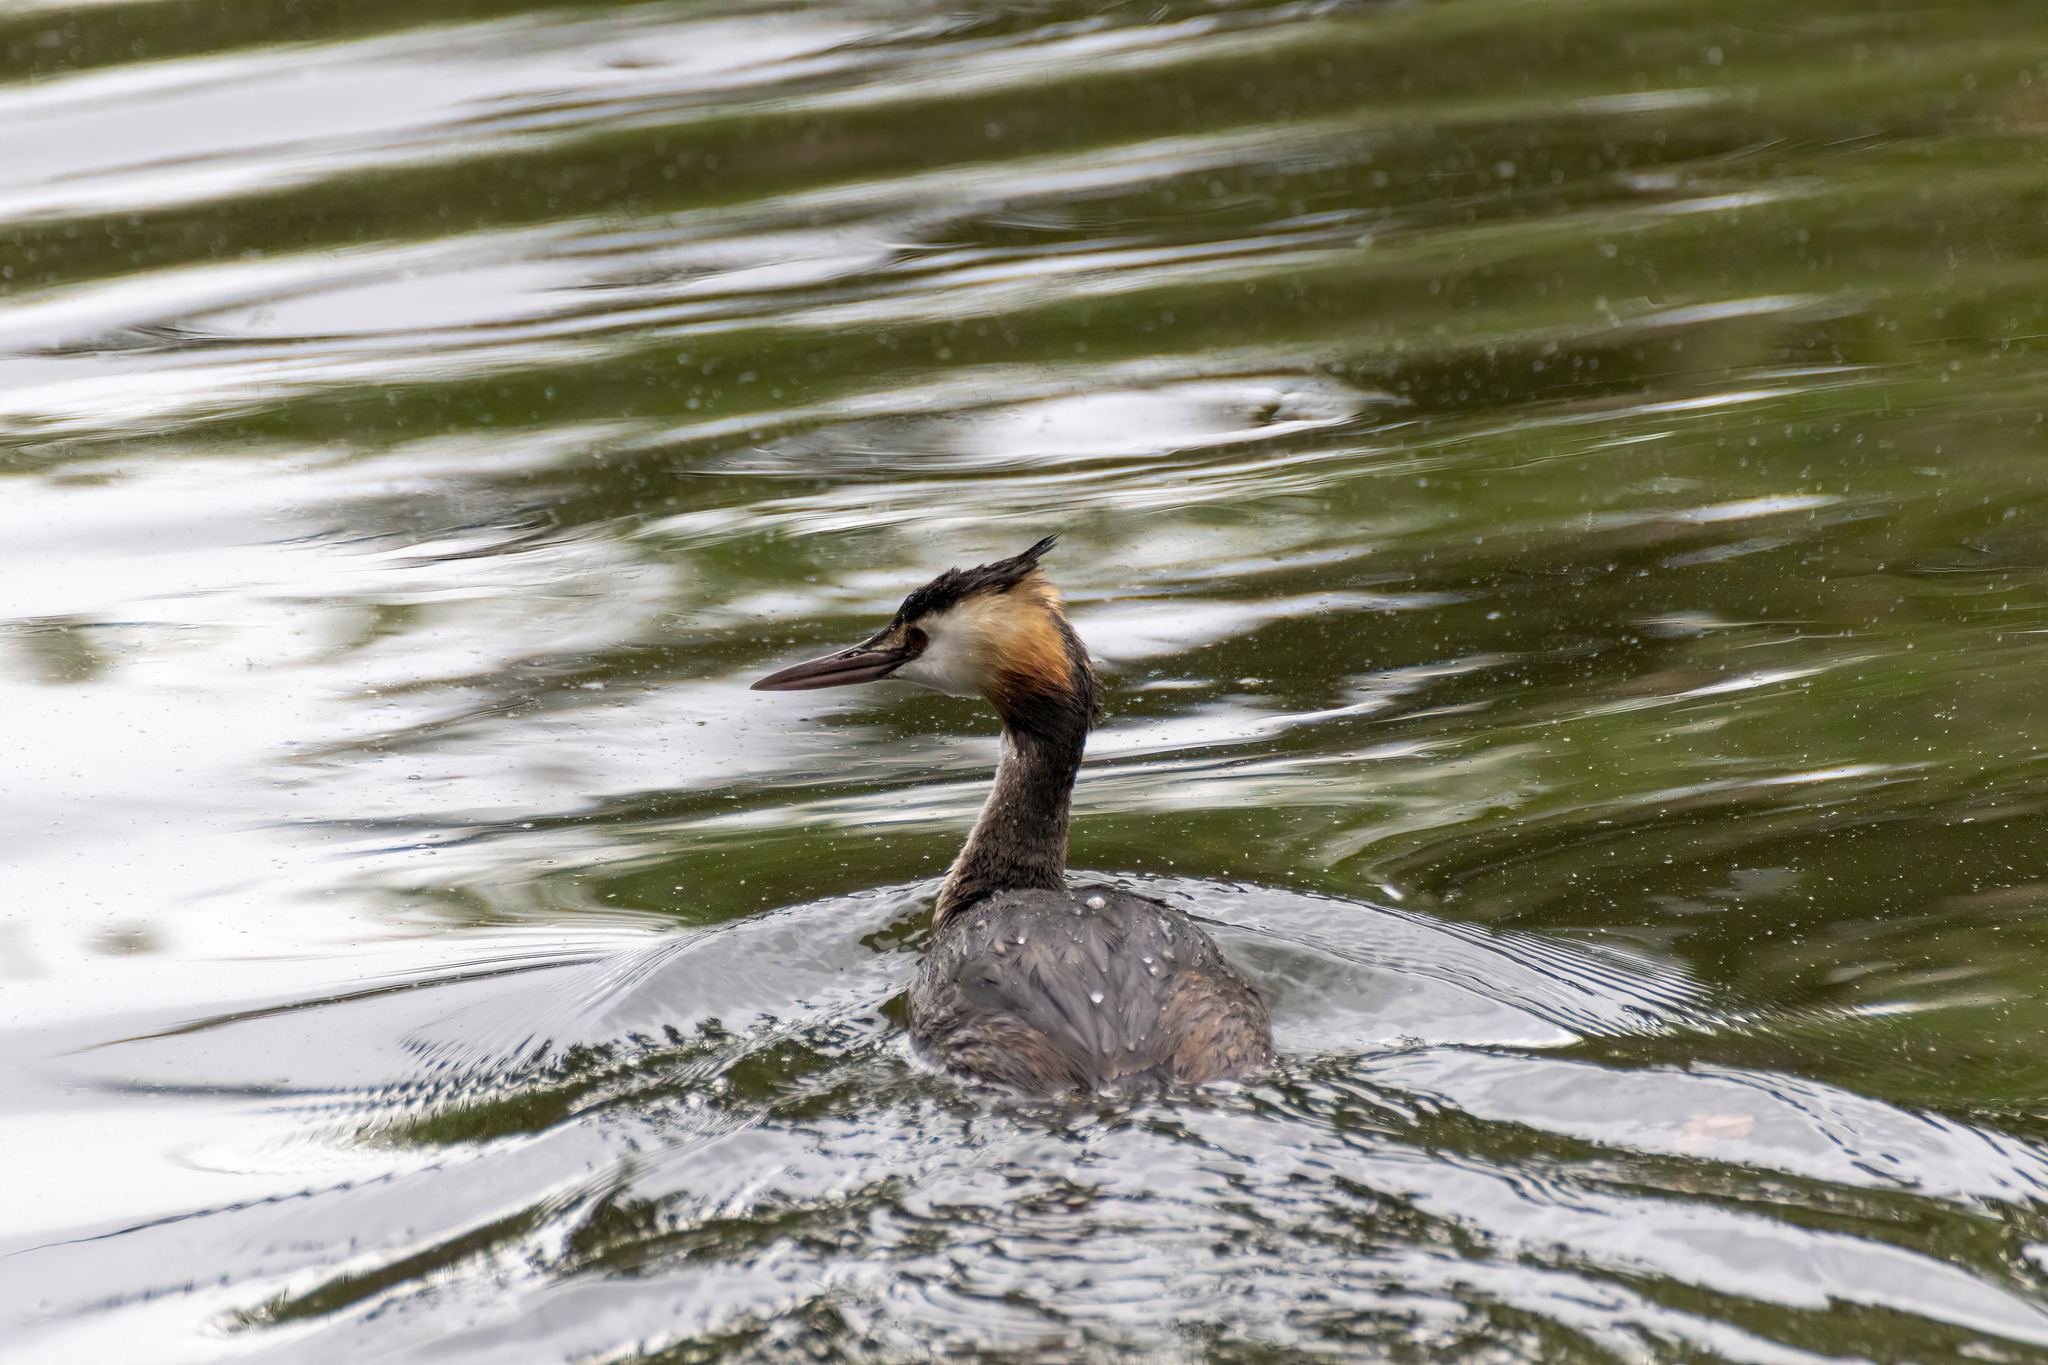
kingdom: Animalia
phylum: Chordata
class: Aves
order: Podicipediformes
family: Podicipedidae
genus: Podiceps
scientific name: Podiceps cristatus
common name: Great crested grebe
